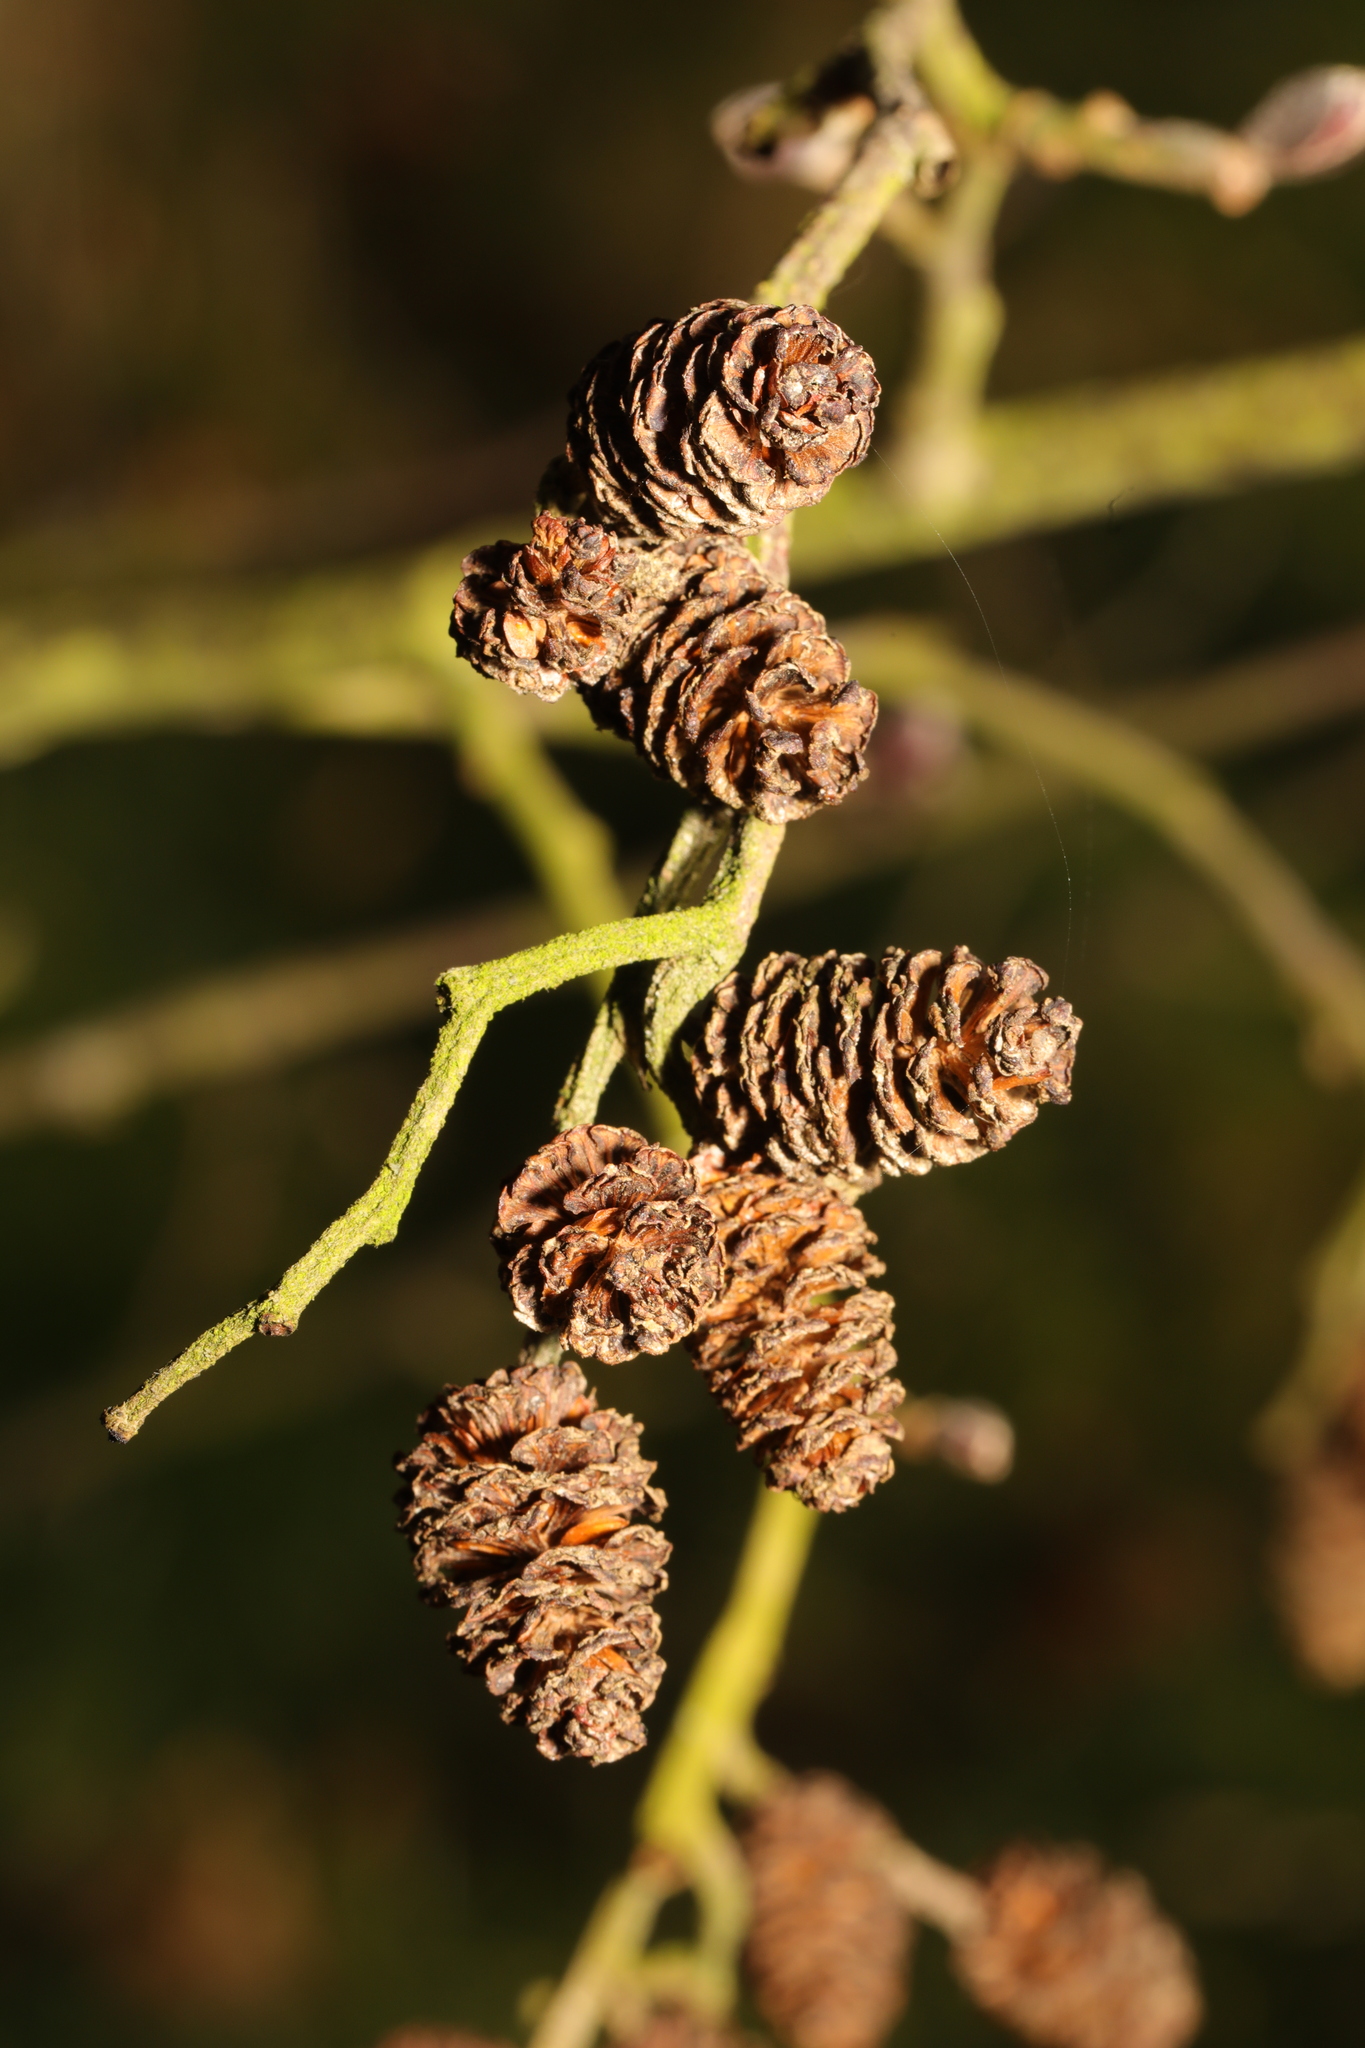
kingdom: Plantae
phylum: Tracheophyta
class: Magnoliopsida
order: Fagales
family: Betulaceae
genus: Alnus
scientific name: Alnus glutinosa
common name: Black alder
